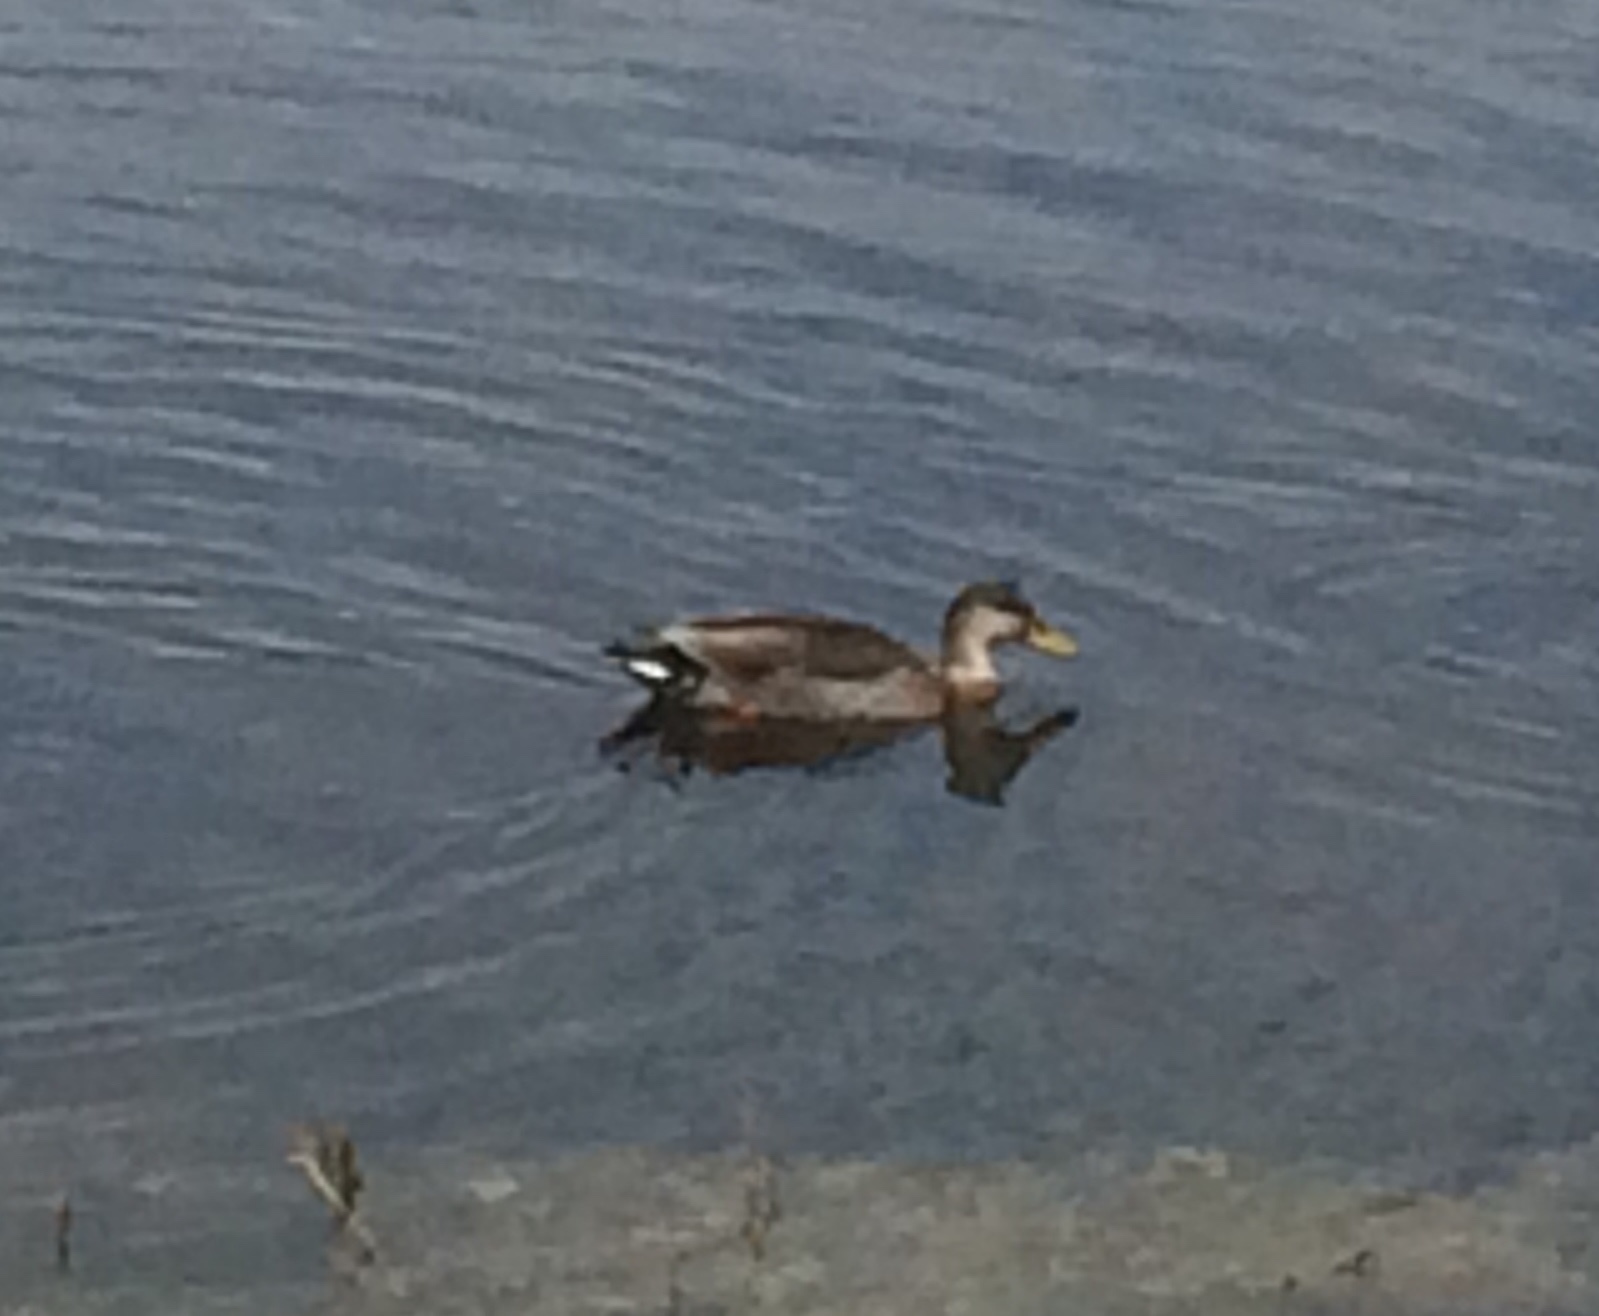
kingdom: Animalia
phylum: Chordata
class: Aves
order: Anseriformes
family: Anatidae
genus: Anas
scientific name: Anas
